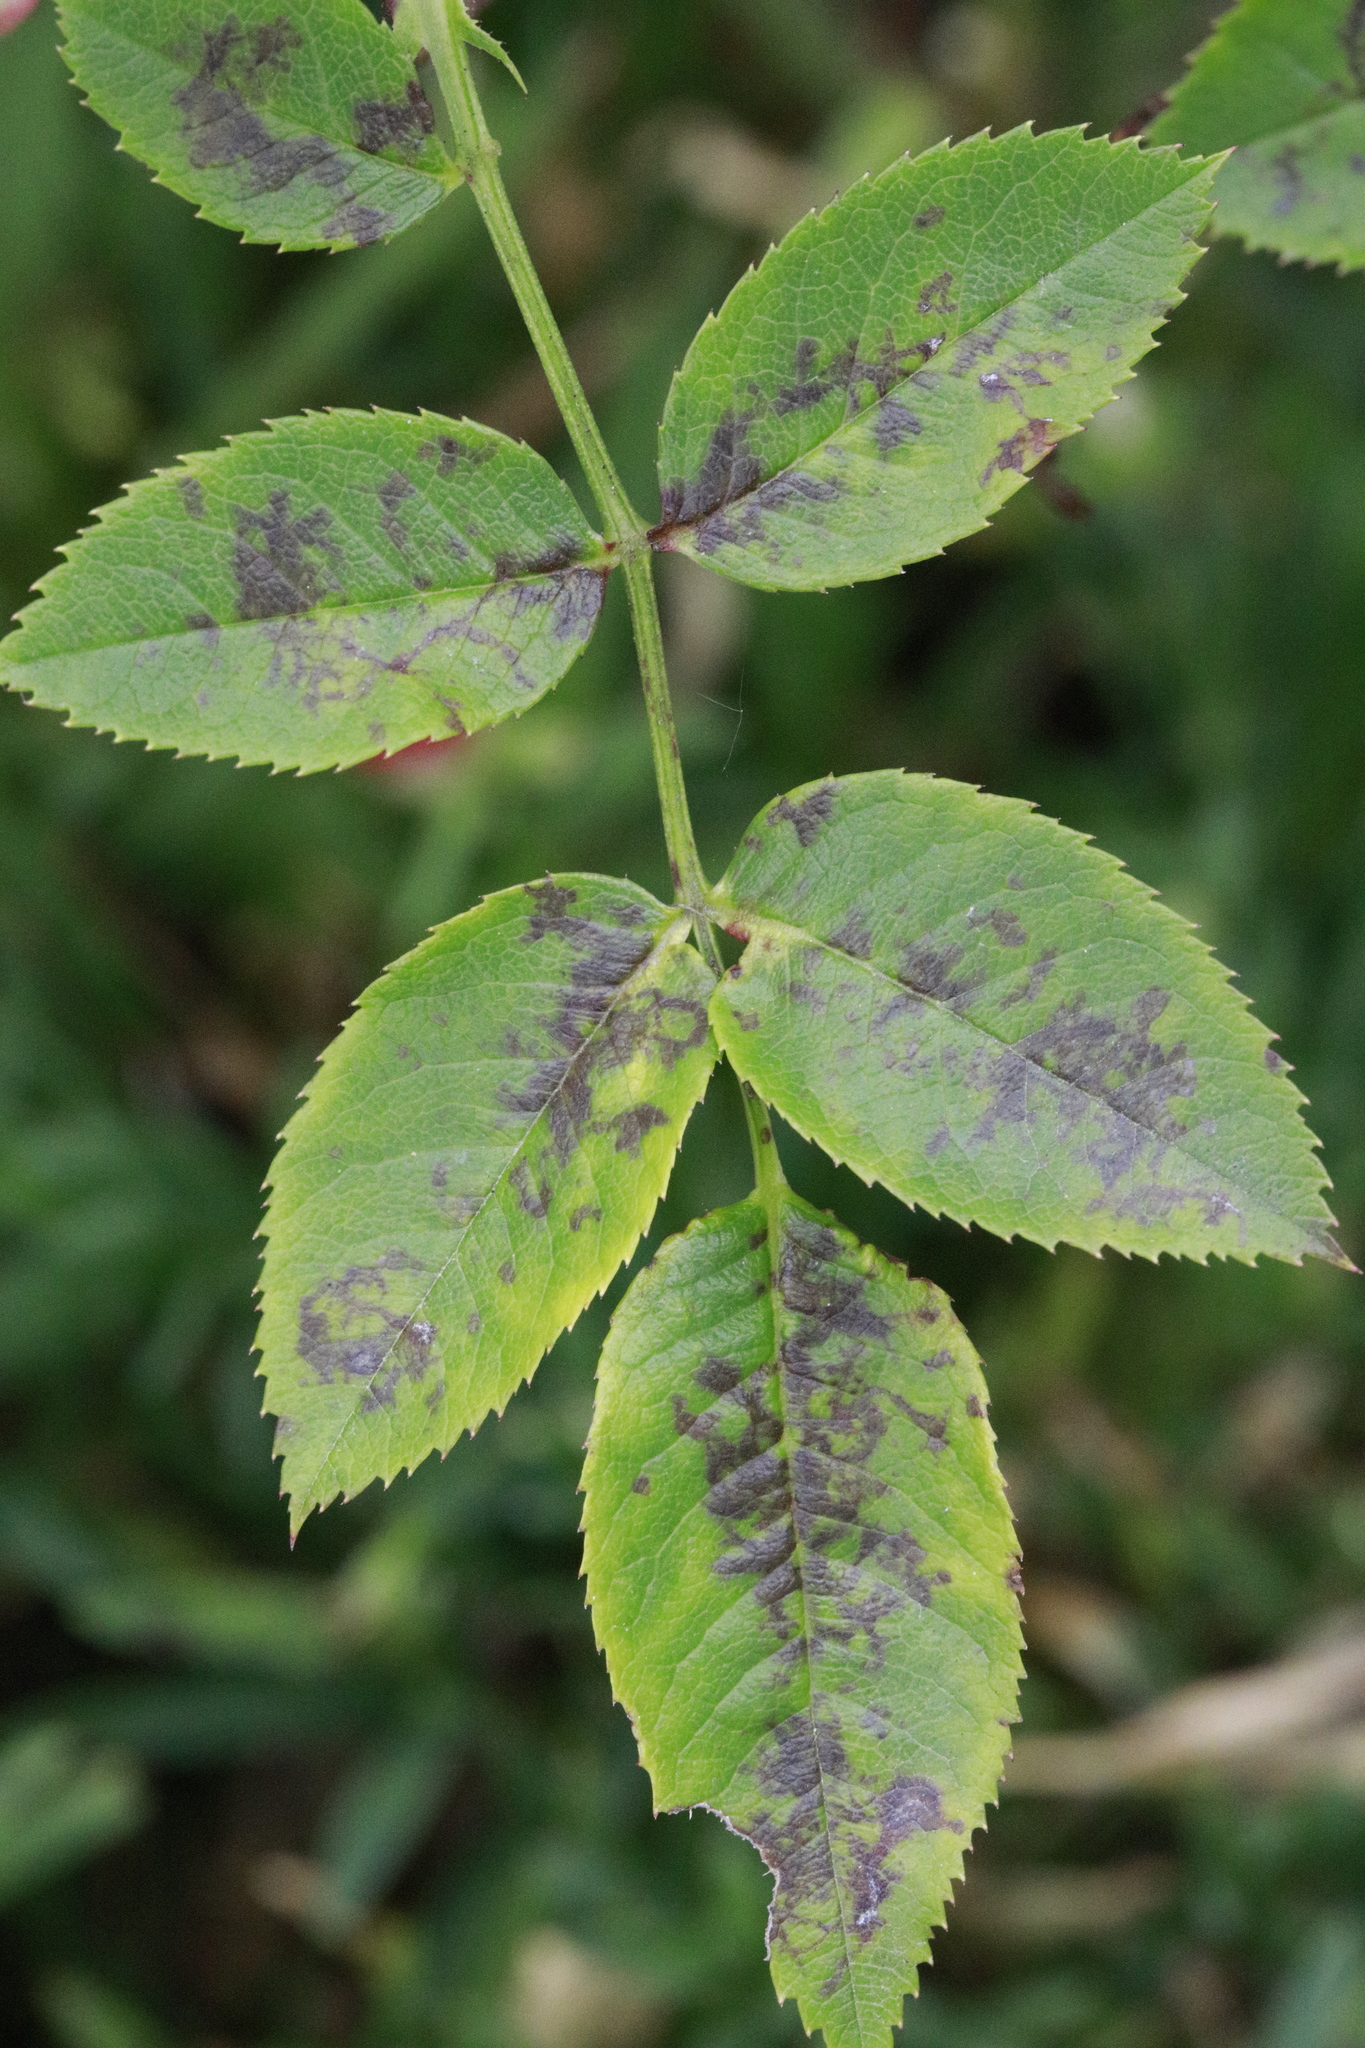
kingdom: Fungi
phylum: Ascomycota
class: Leotiomycetes
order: Helotiales
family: Drepanopezizaceae
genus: Diplocarpon
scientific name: Diplocarpon rosae
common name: Rose black-spot
